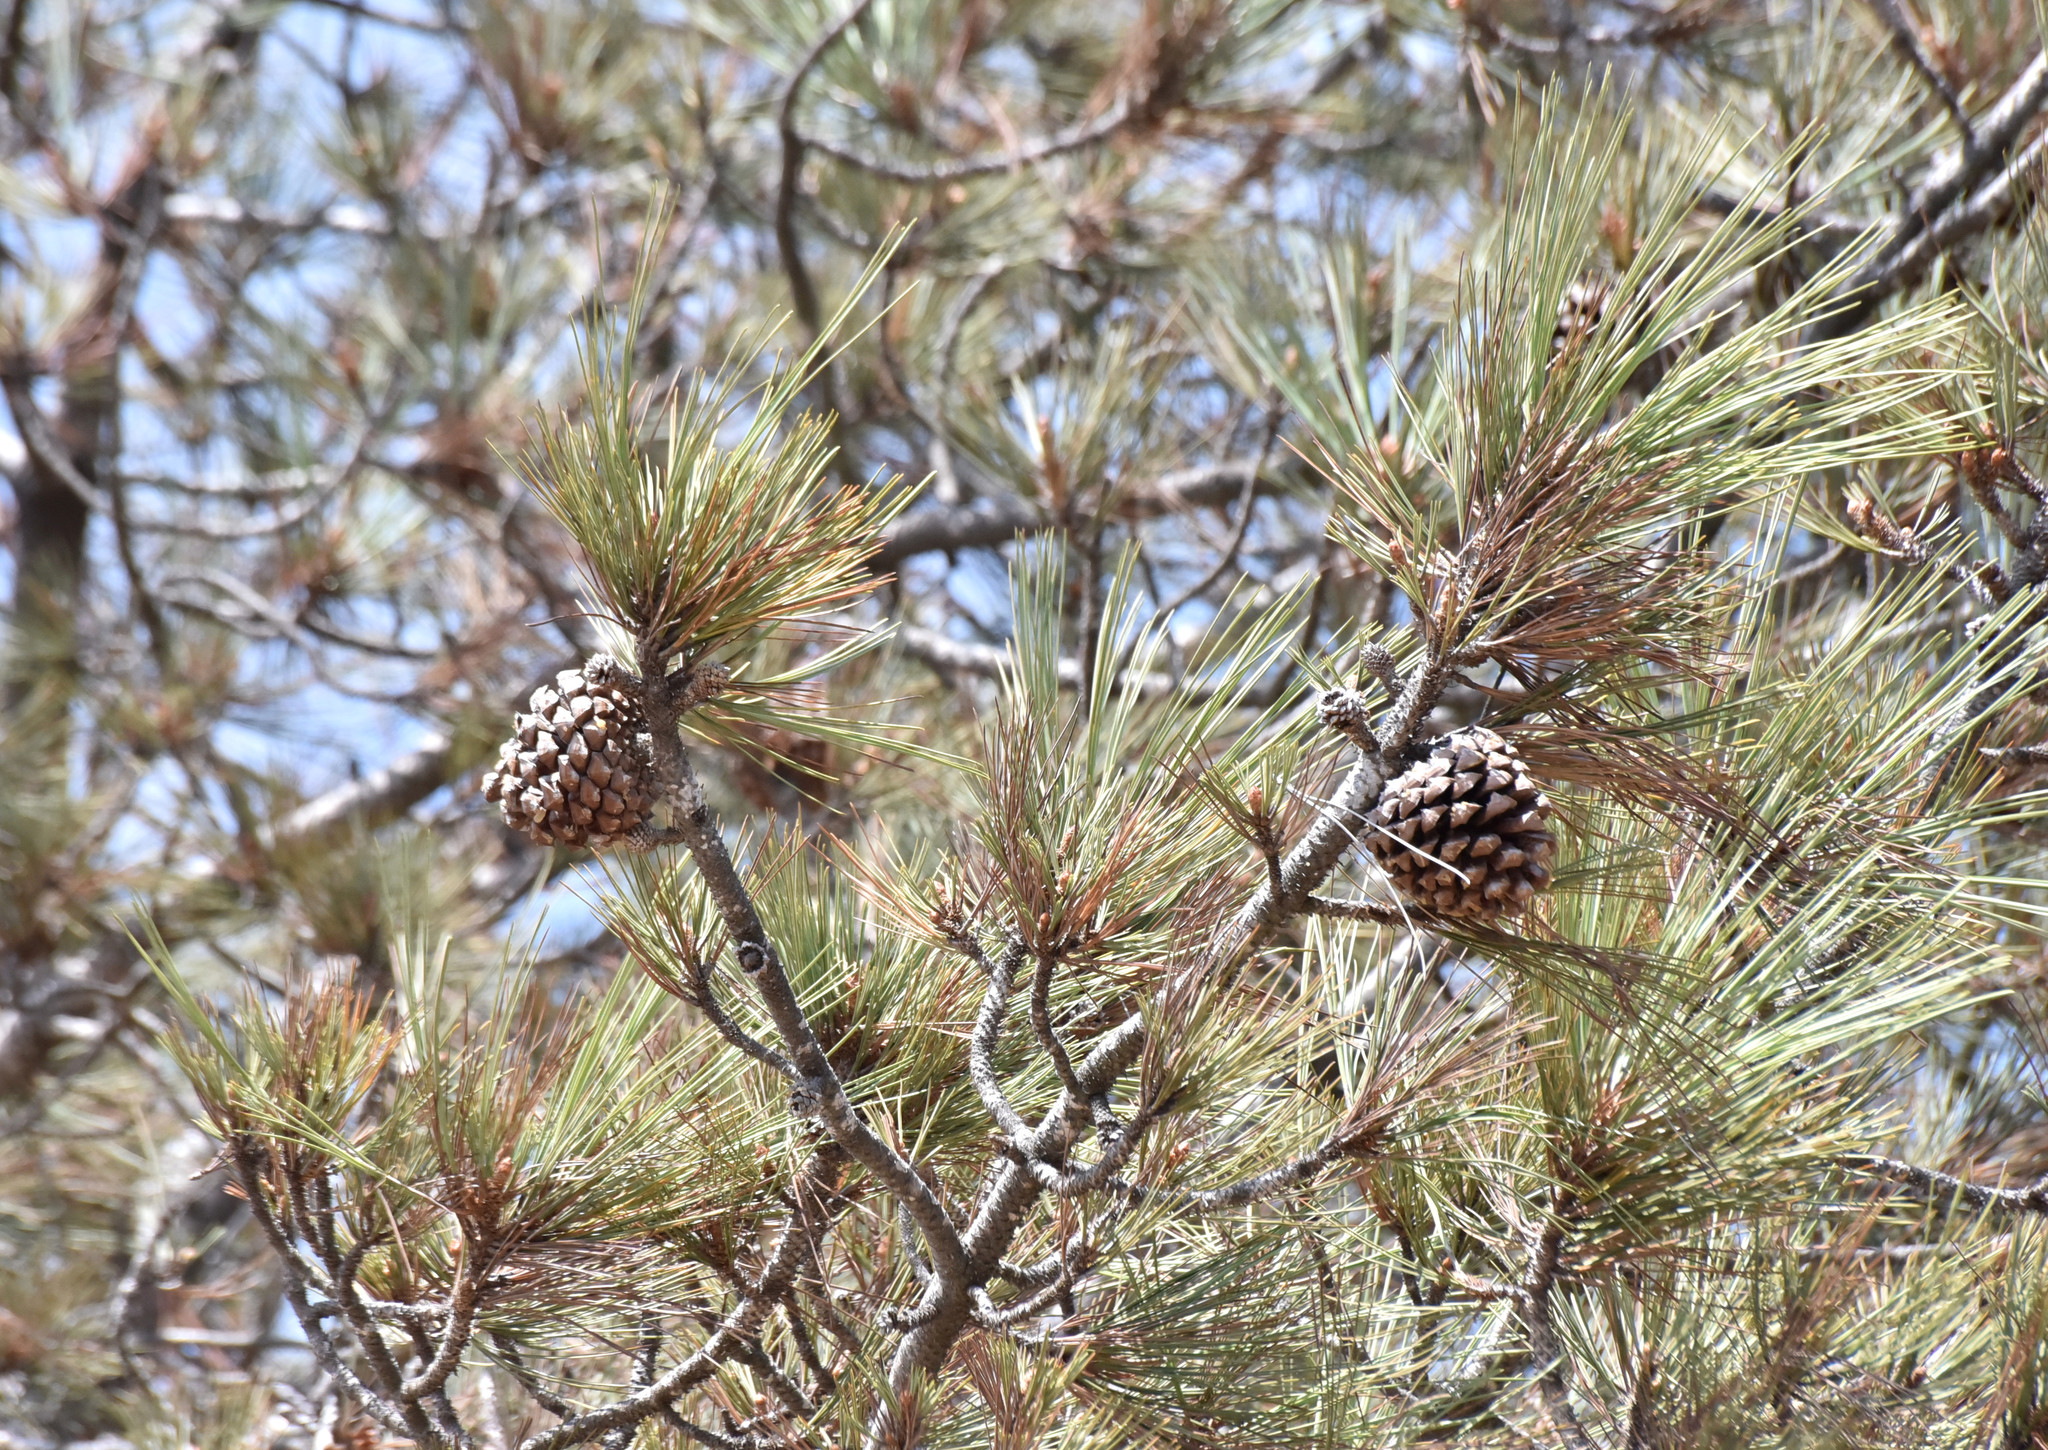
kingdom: Plantae
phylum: Tracheophyta
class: Pinopsida
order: Pinales
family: Pinaceae
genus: Pinus
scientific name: Pinus torreyana
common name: Torrey pine
